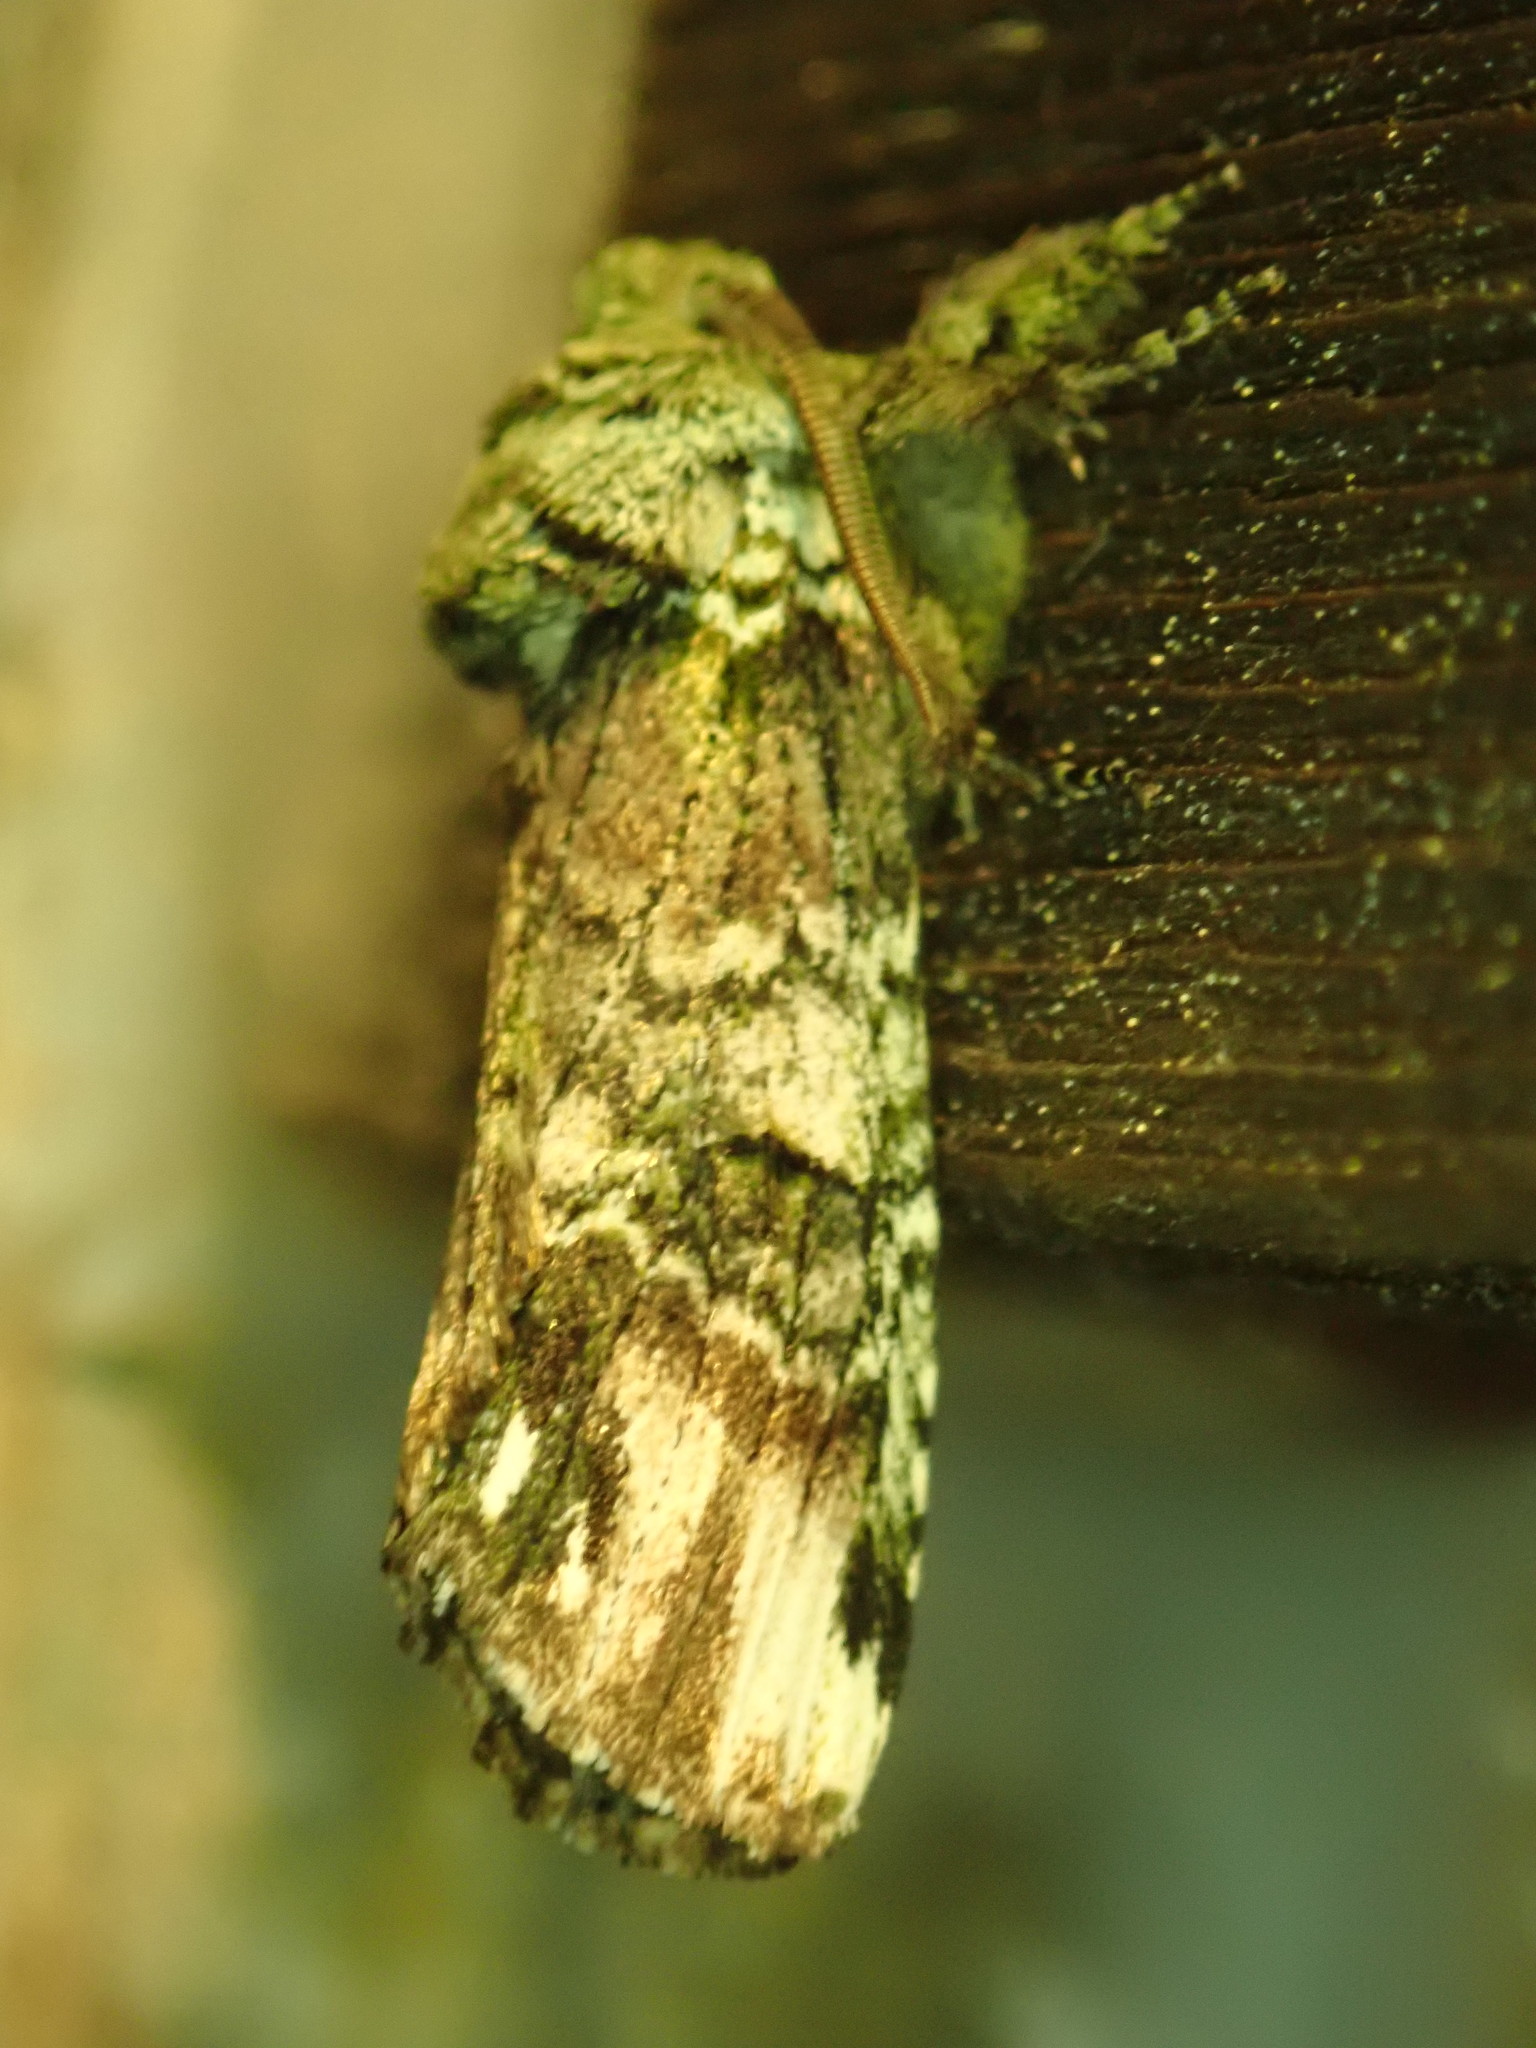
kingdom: Animalia
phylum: Arthropoda
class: Insecta
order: Lepidoptera
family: Notodontidae
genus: Schizura
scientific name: Schizura
